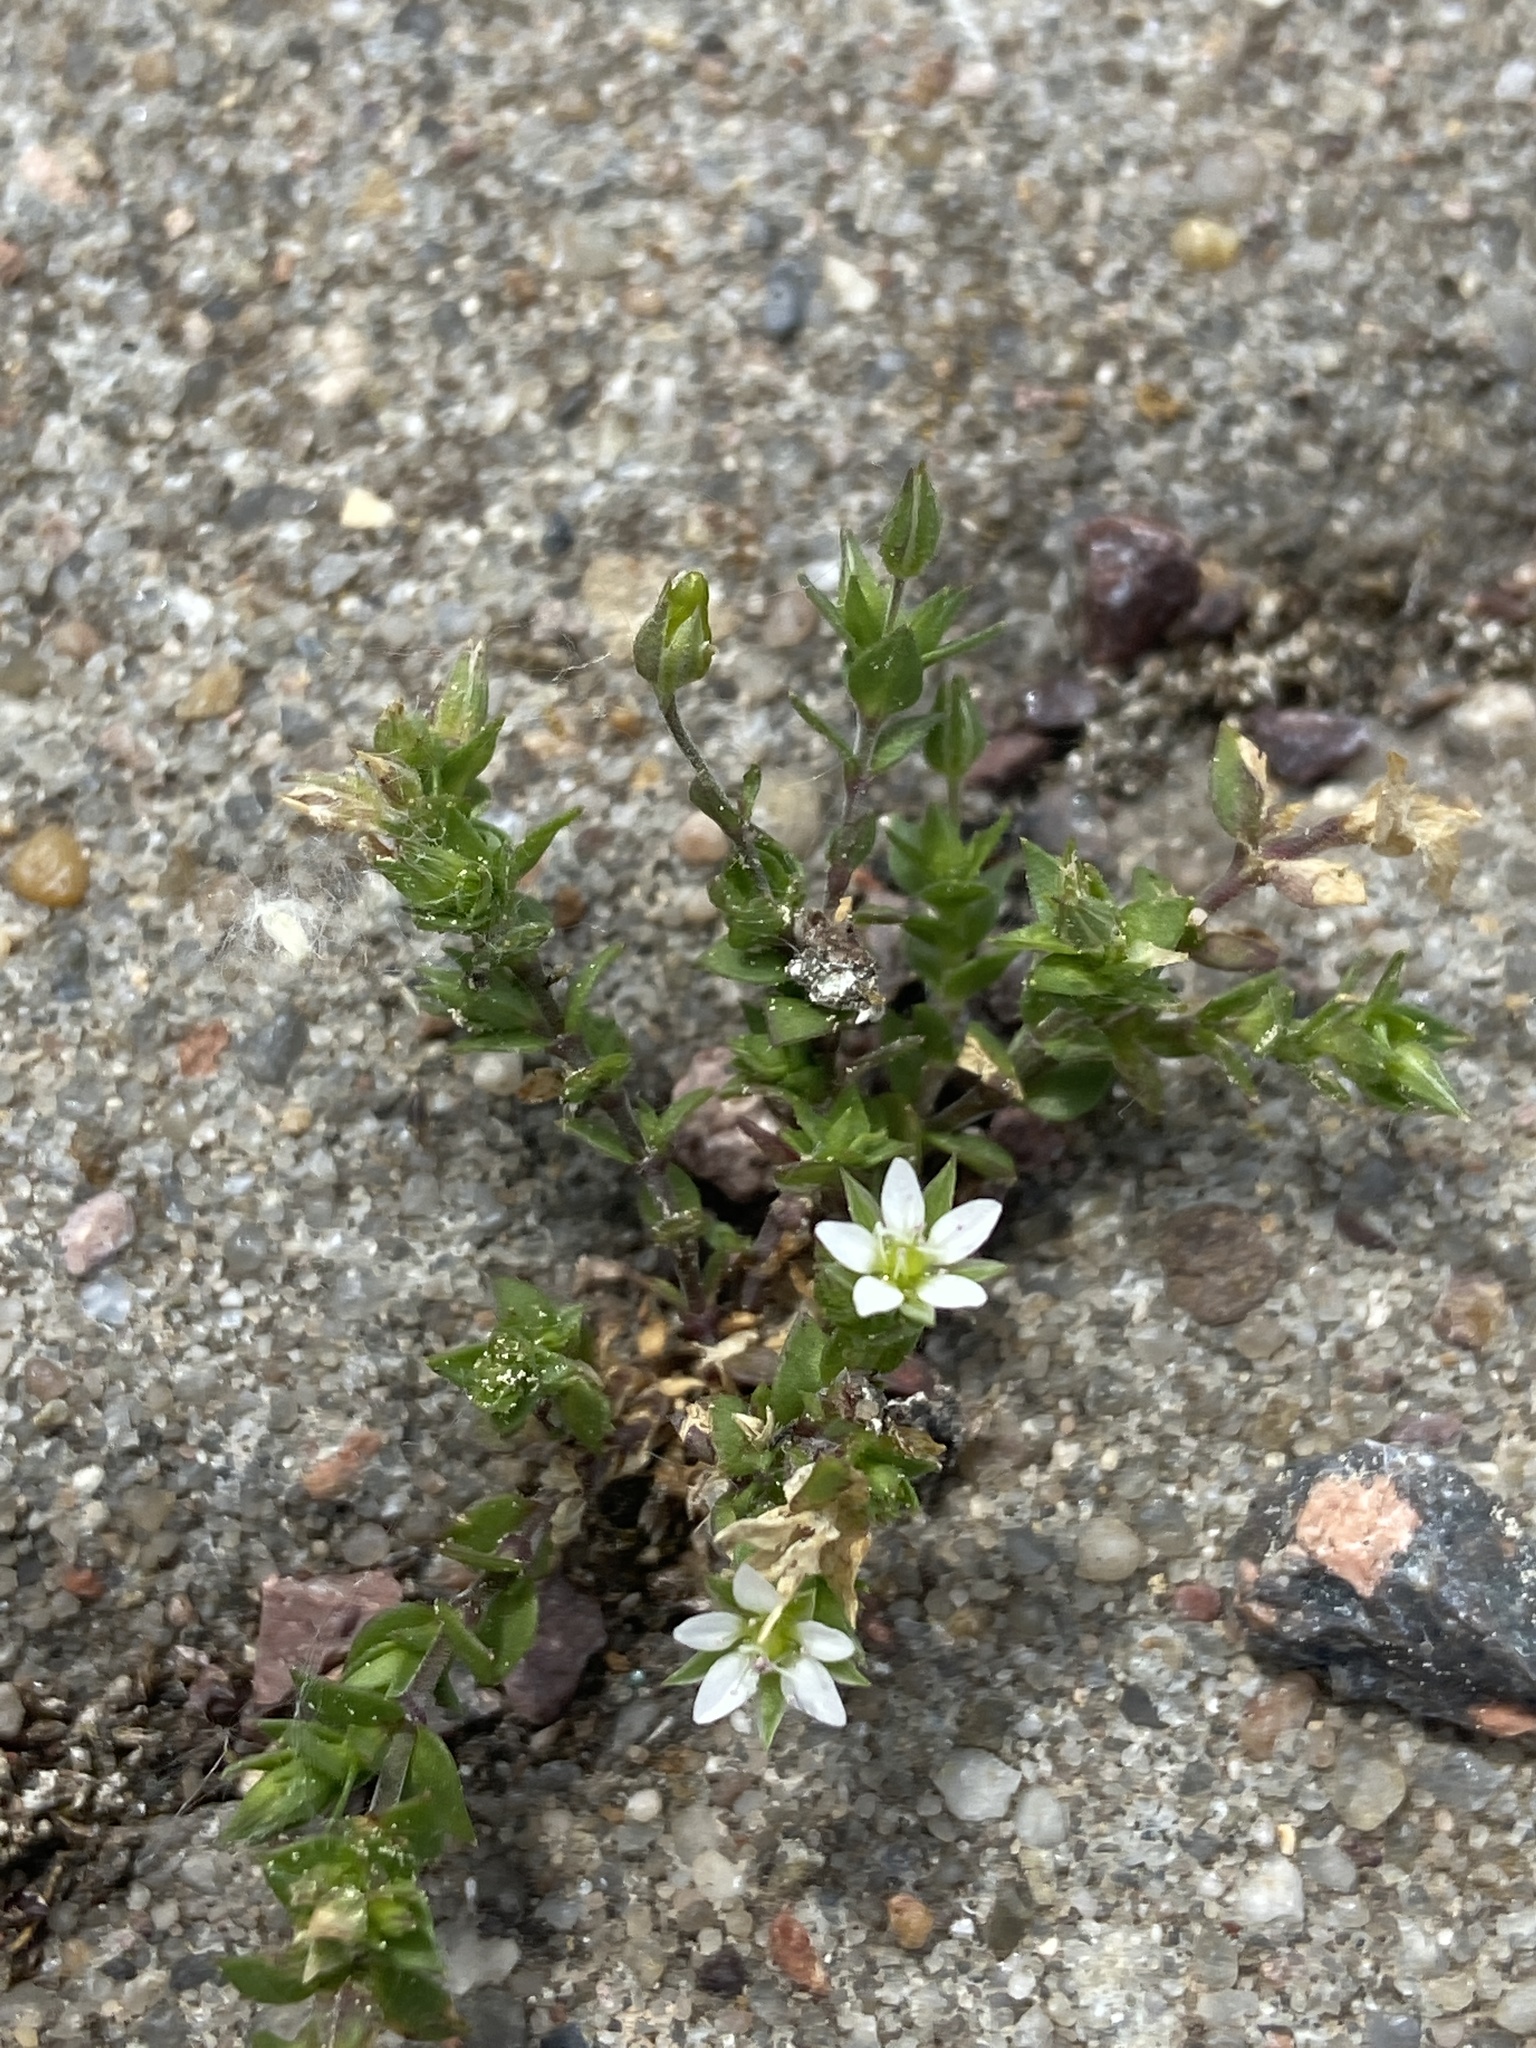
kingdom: Plantae
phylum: Tracheophyta
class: Magnoliopsida
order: Caryophyllales
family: Caryophyllaceae
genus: Arenaria
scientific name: Arenaria serpyllifolia
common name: Thyme-leaved sandwort
